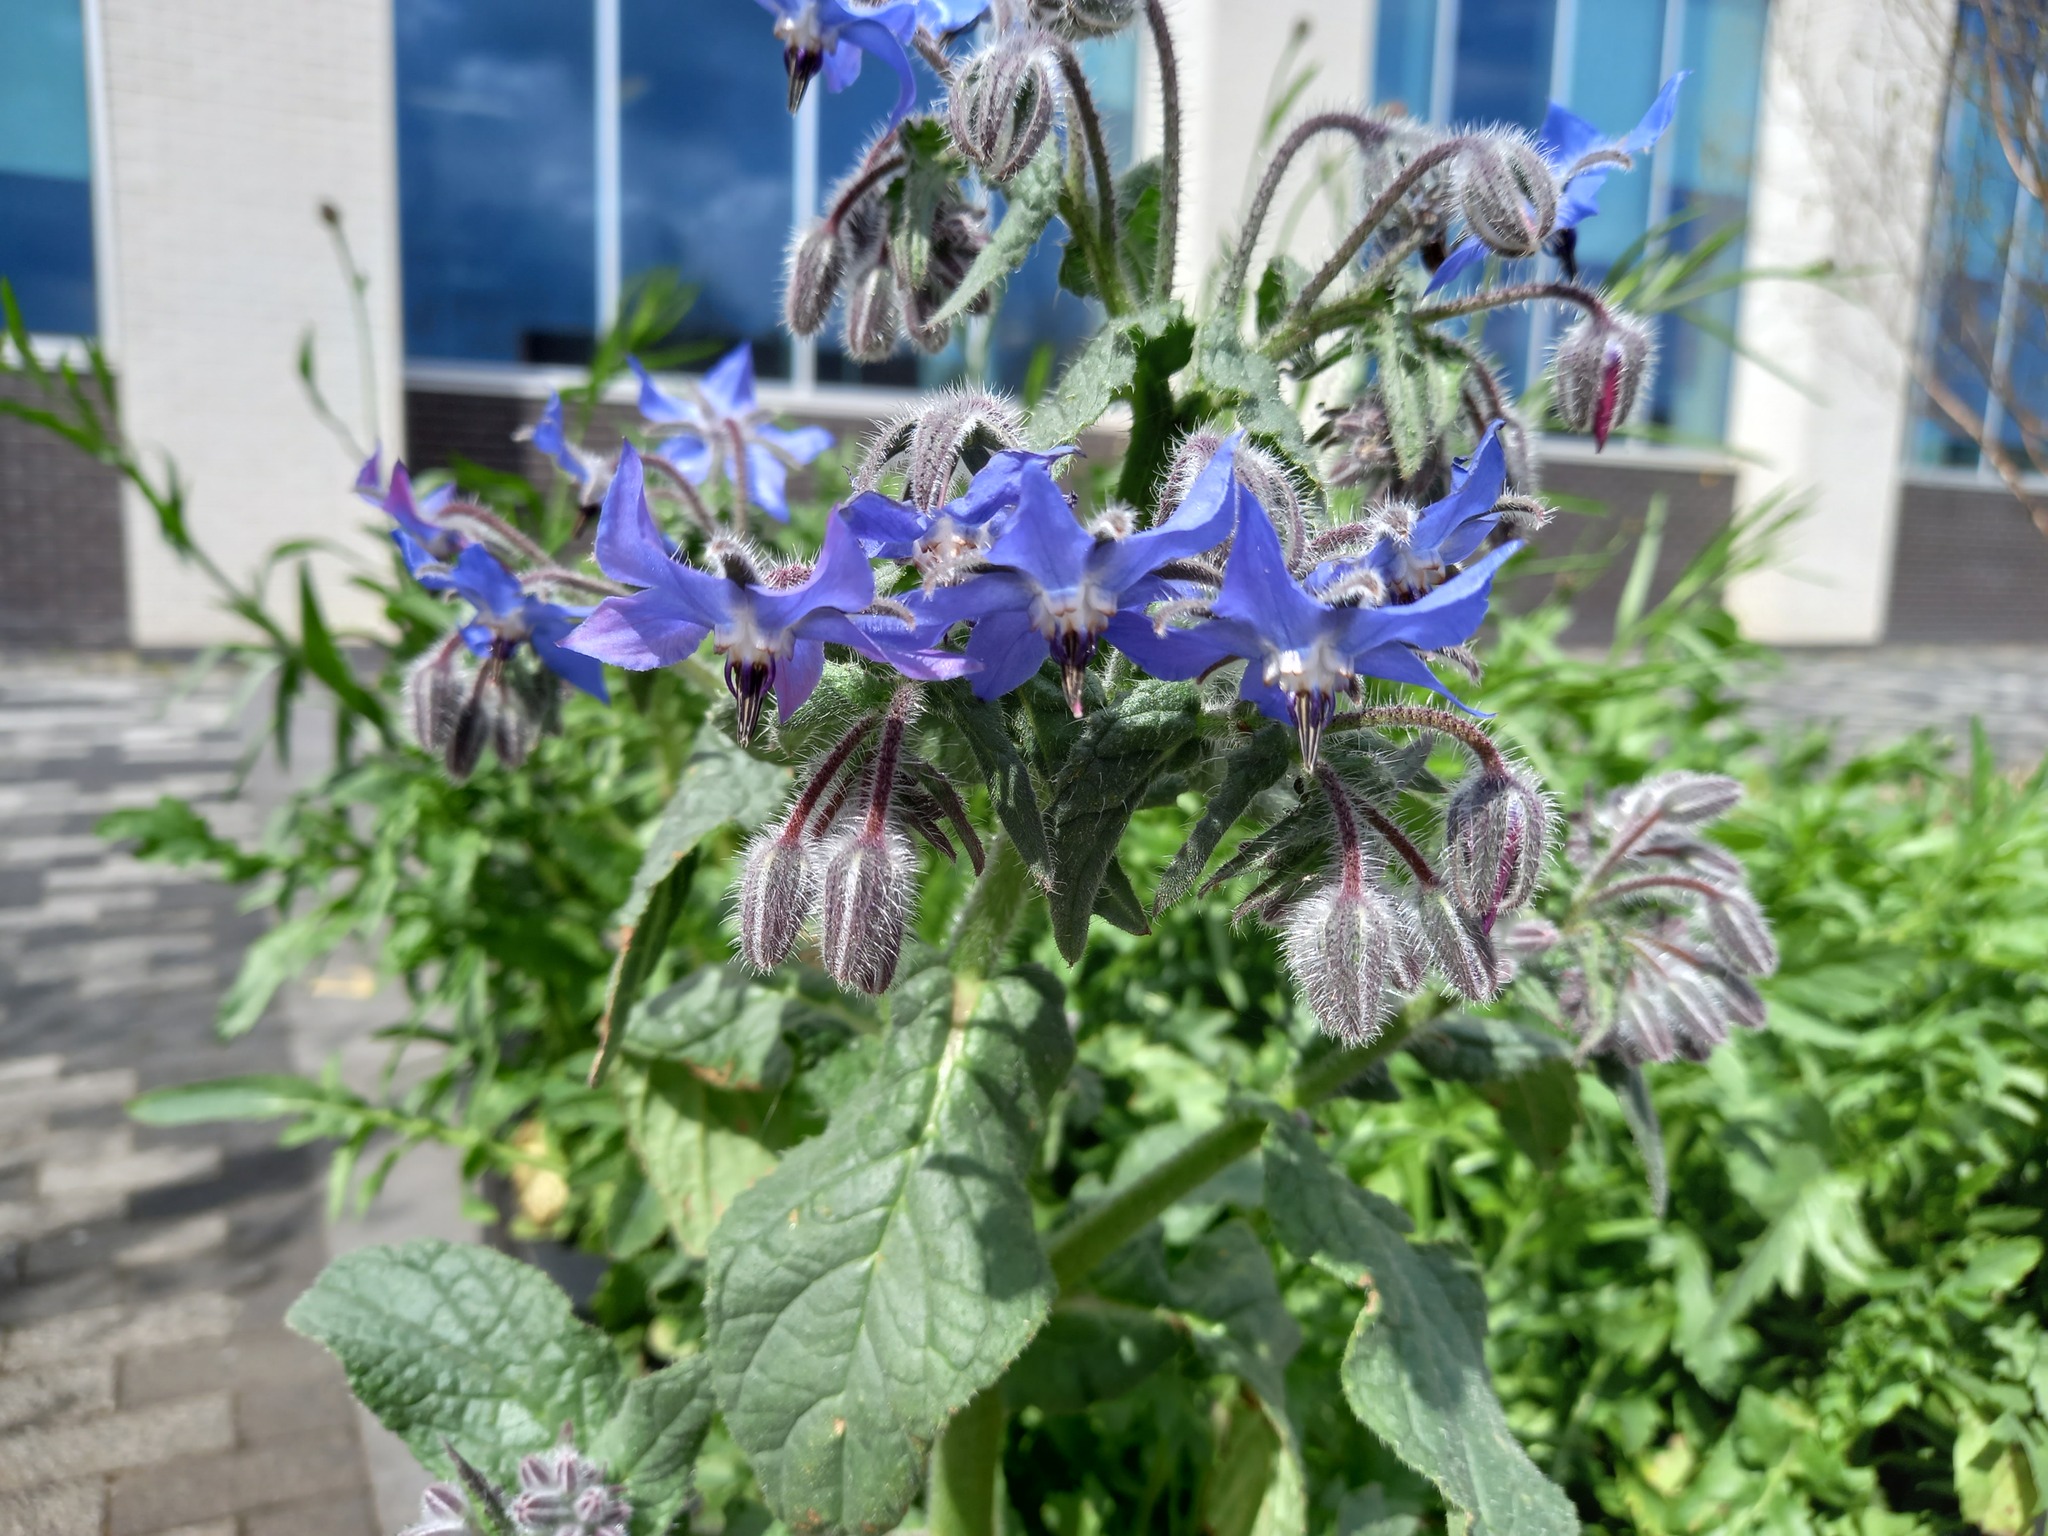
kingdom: Plantae
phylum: Tracheophyta
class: Magnoliopsida
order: Boraginales
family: Boraginaceae
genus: Borago
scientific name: Borago officinalis
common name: Borage
